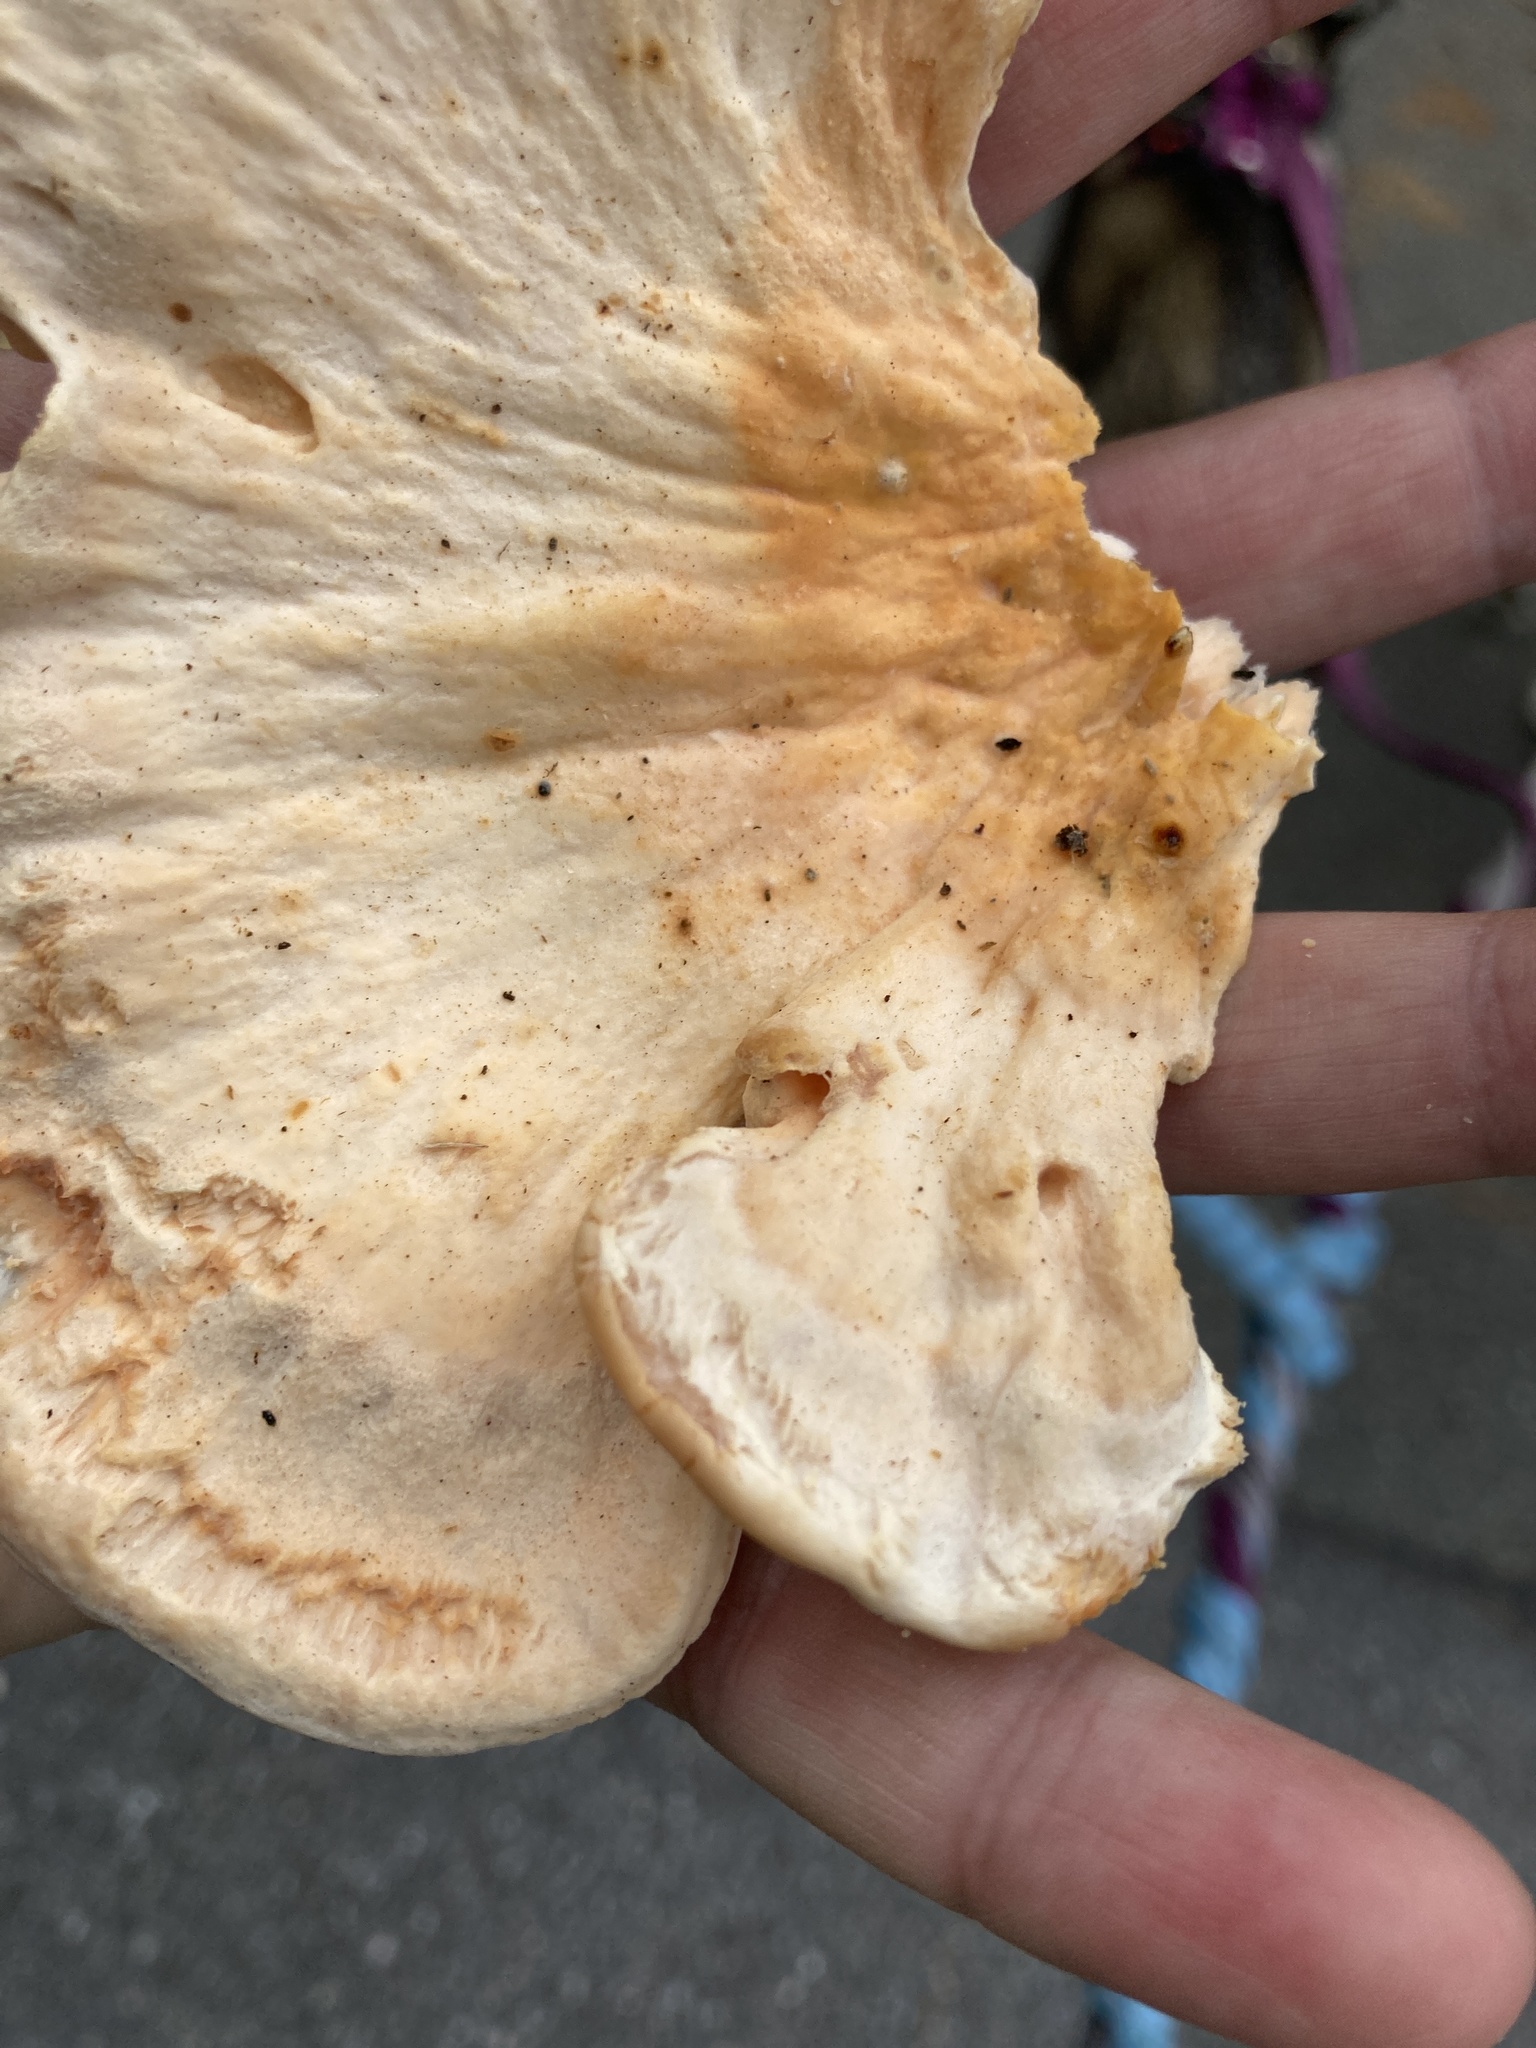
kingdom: Fungi
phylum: Basidiomycota
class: Agaricomycetes
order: Polyporales
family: Laetiporaceae
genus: Laetiporus
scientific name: Laetiporus sulphureus
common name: Chicken of the woods
